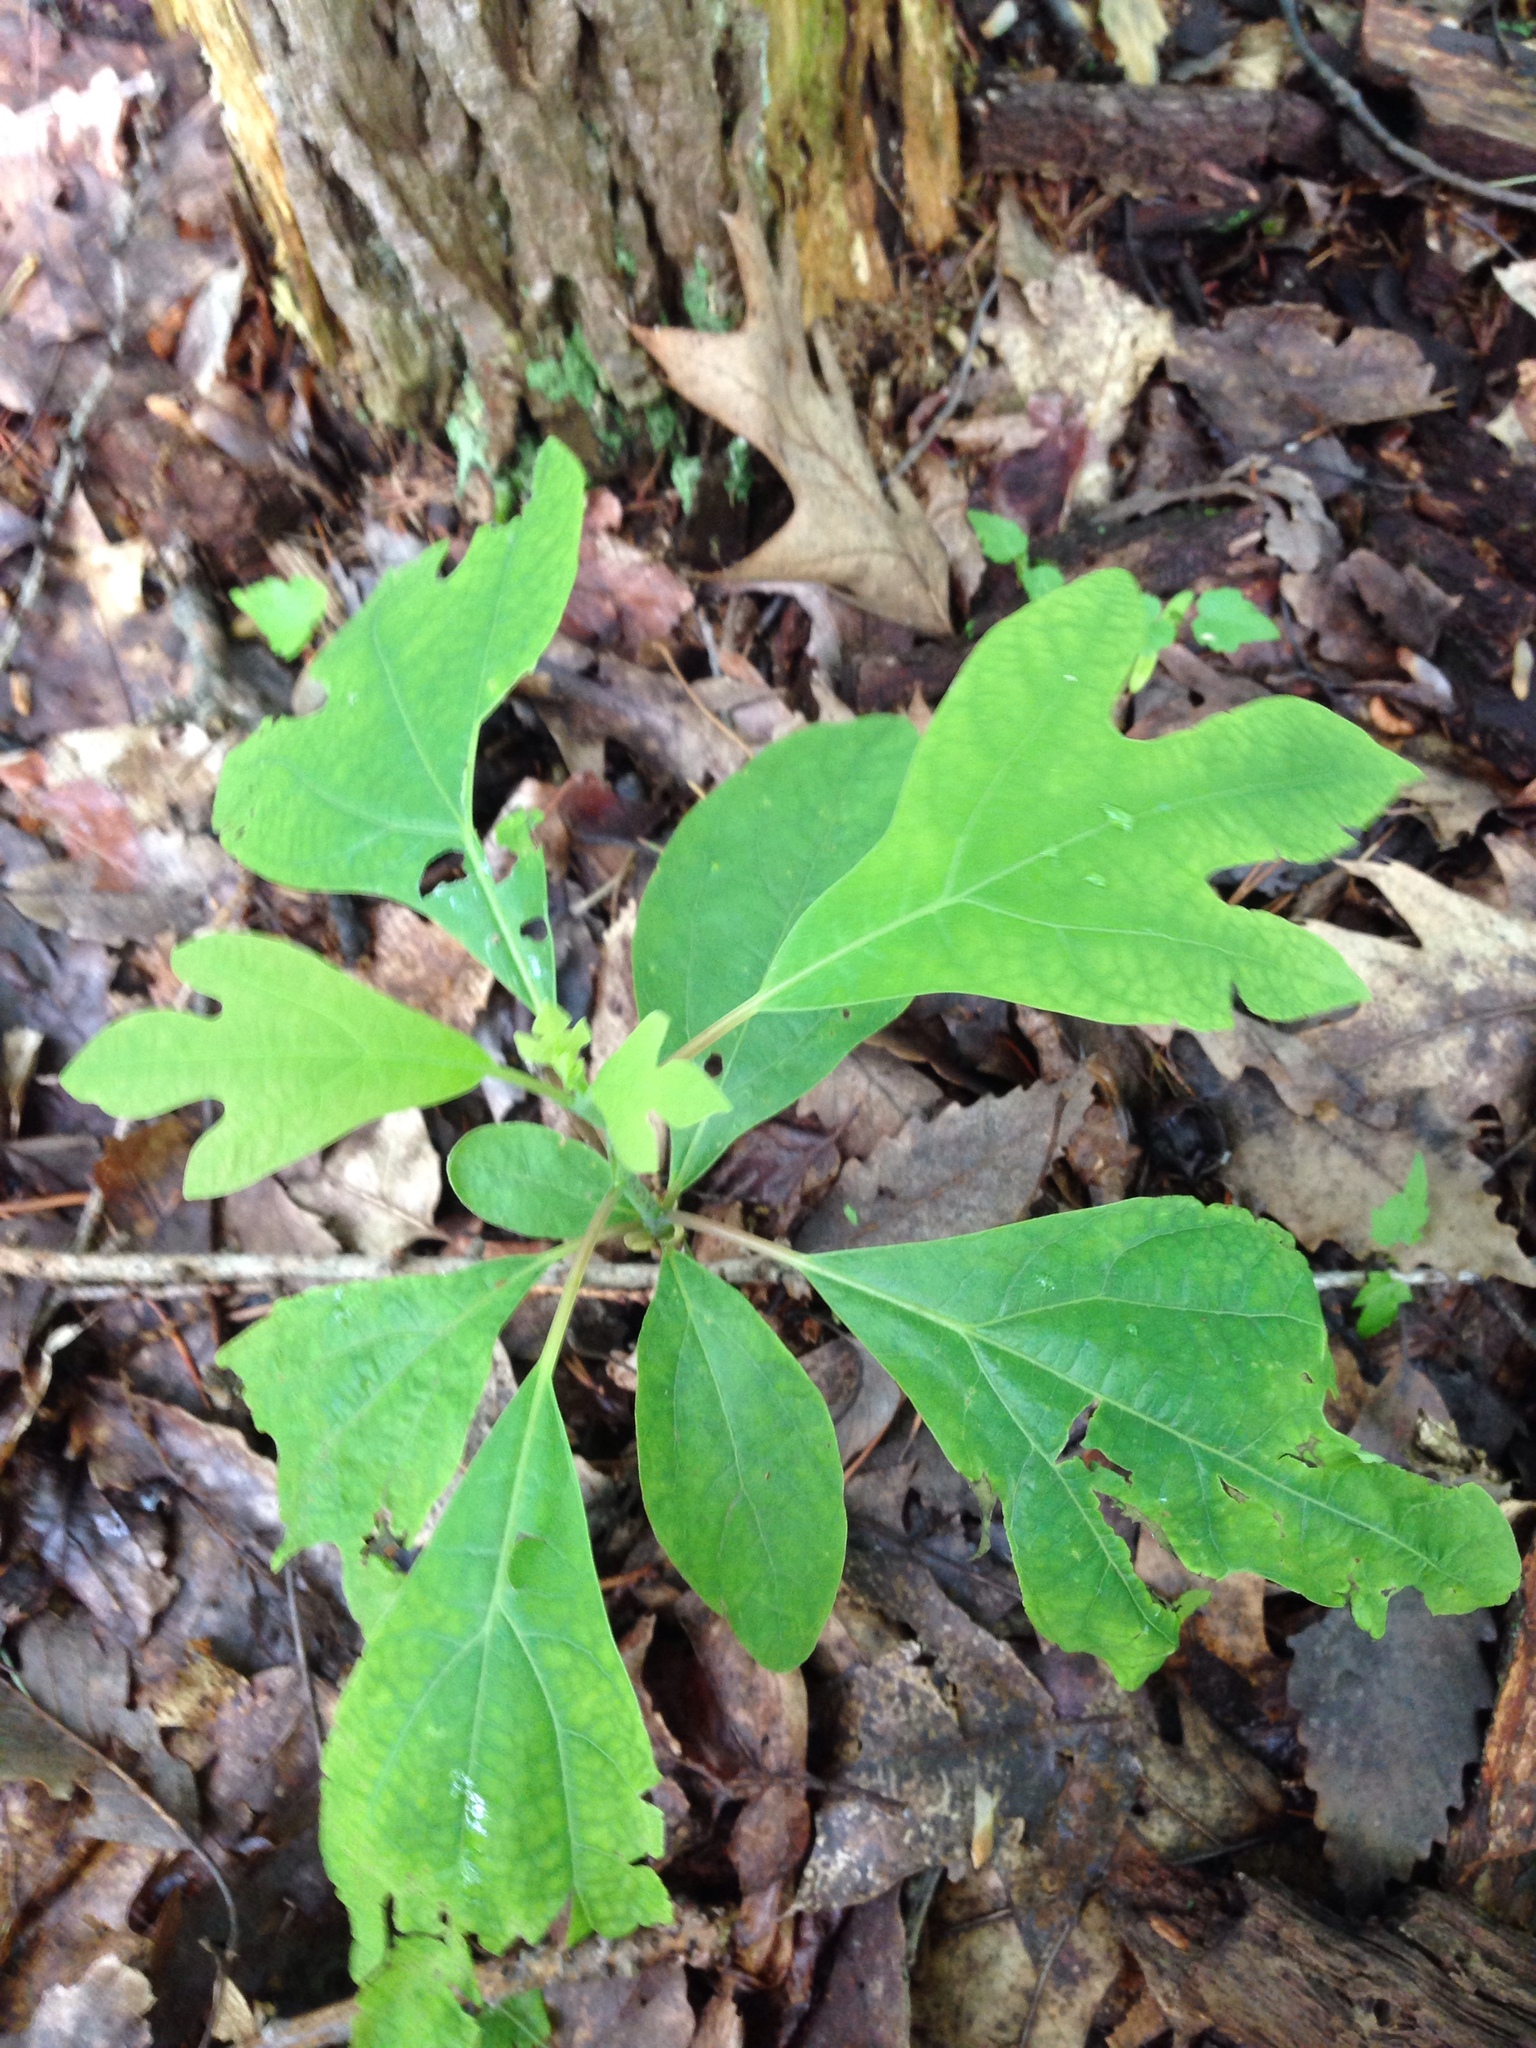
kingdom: Plantae
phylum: Tracheophyta
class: Magnoliopsida
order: Laurales
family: Lauraceae
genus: Sassafras
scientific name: Sassafras albidum
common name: Sassafras
